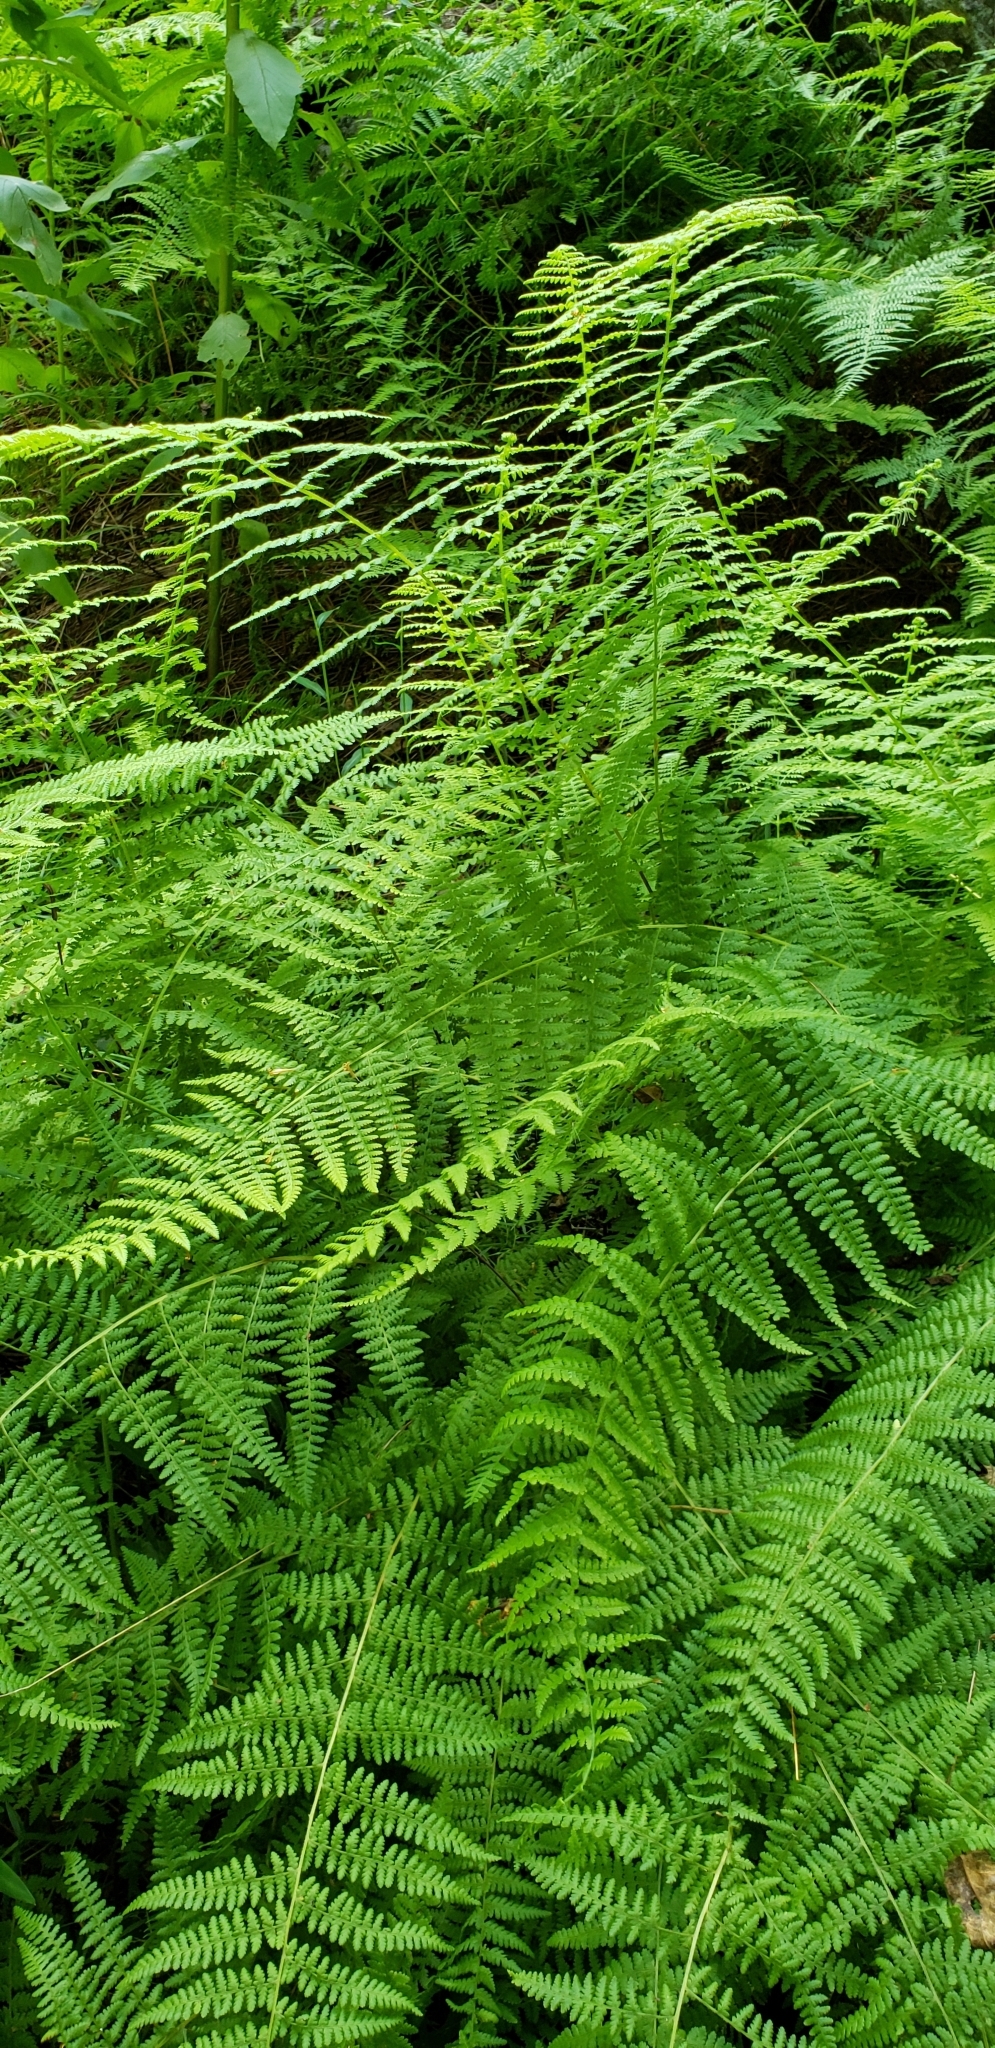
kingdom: Plantae
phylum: Tracheophyta
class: Polypodiopsida
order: Polypodiales
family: Dennstaedtiaceae
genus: Sitobolium
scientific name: Sitobolium punctilobum
